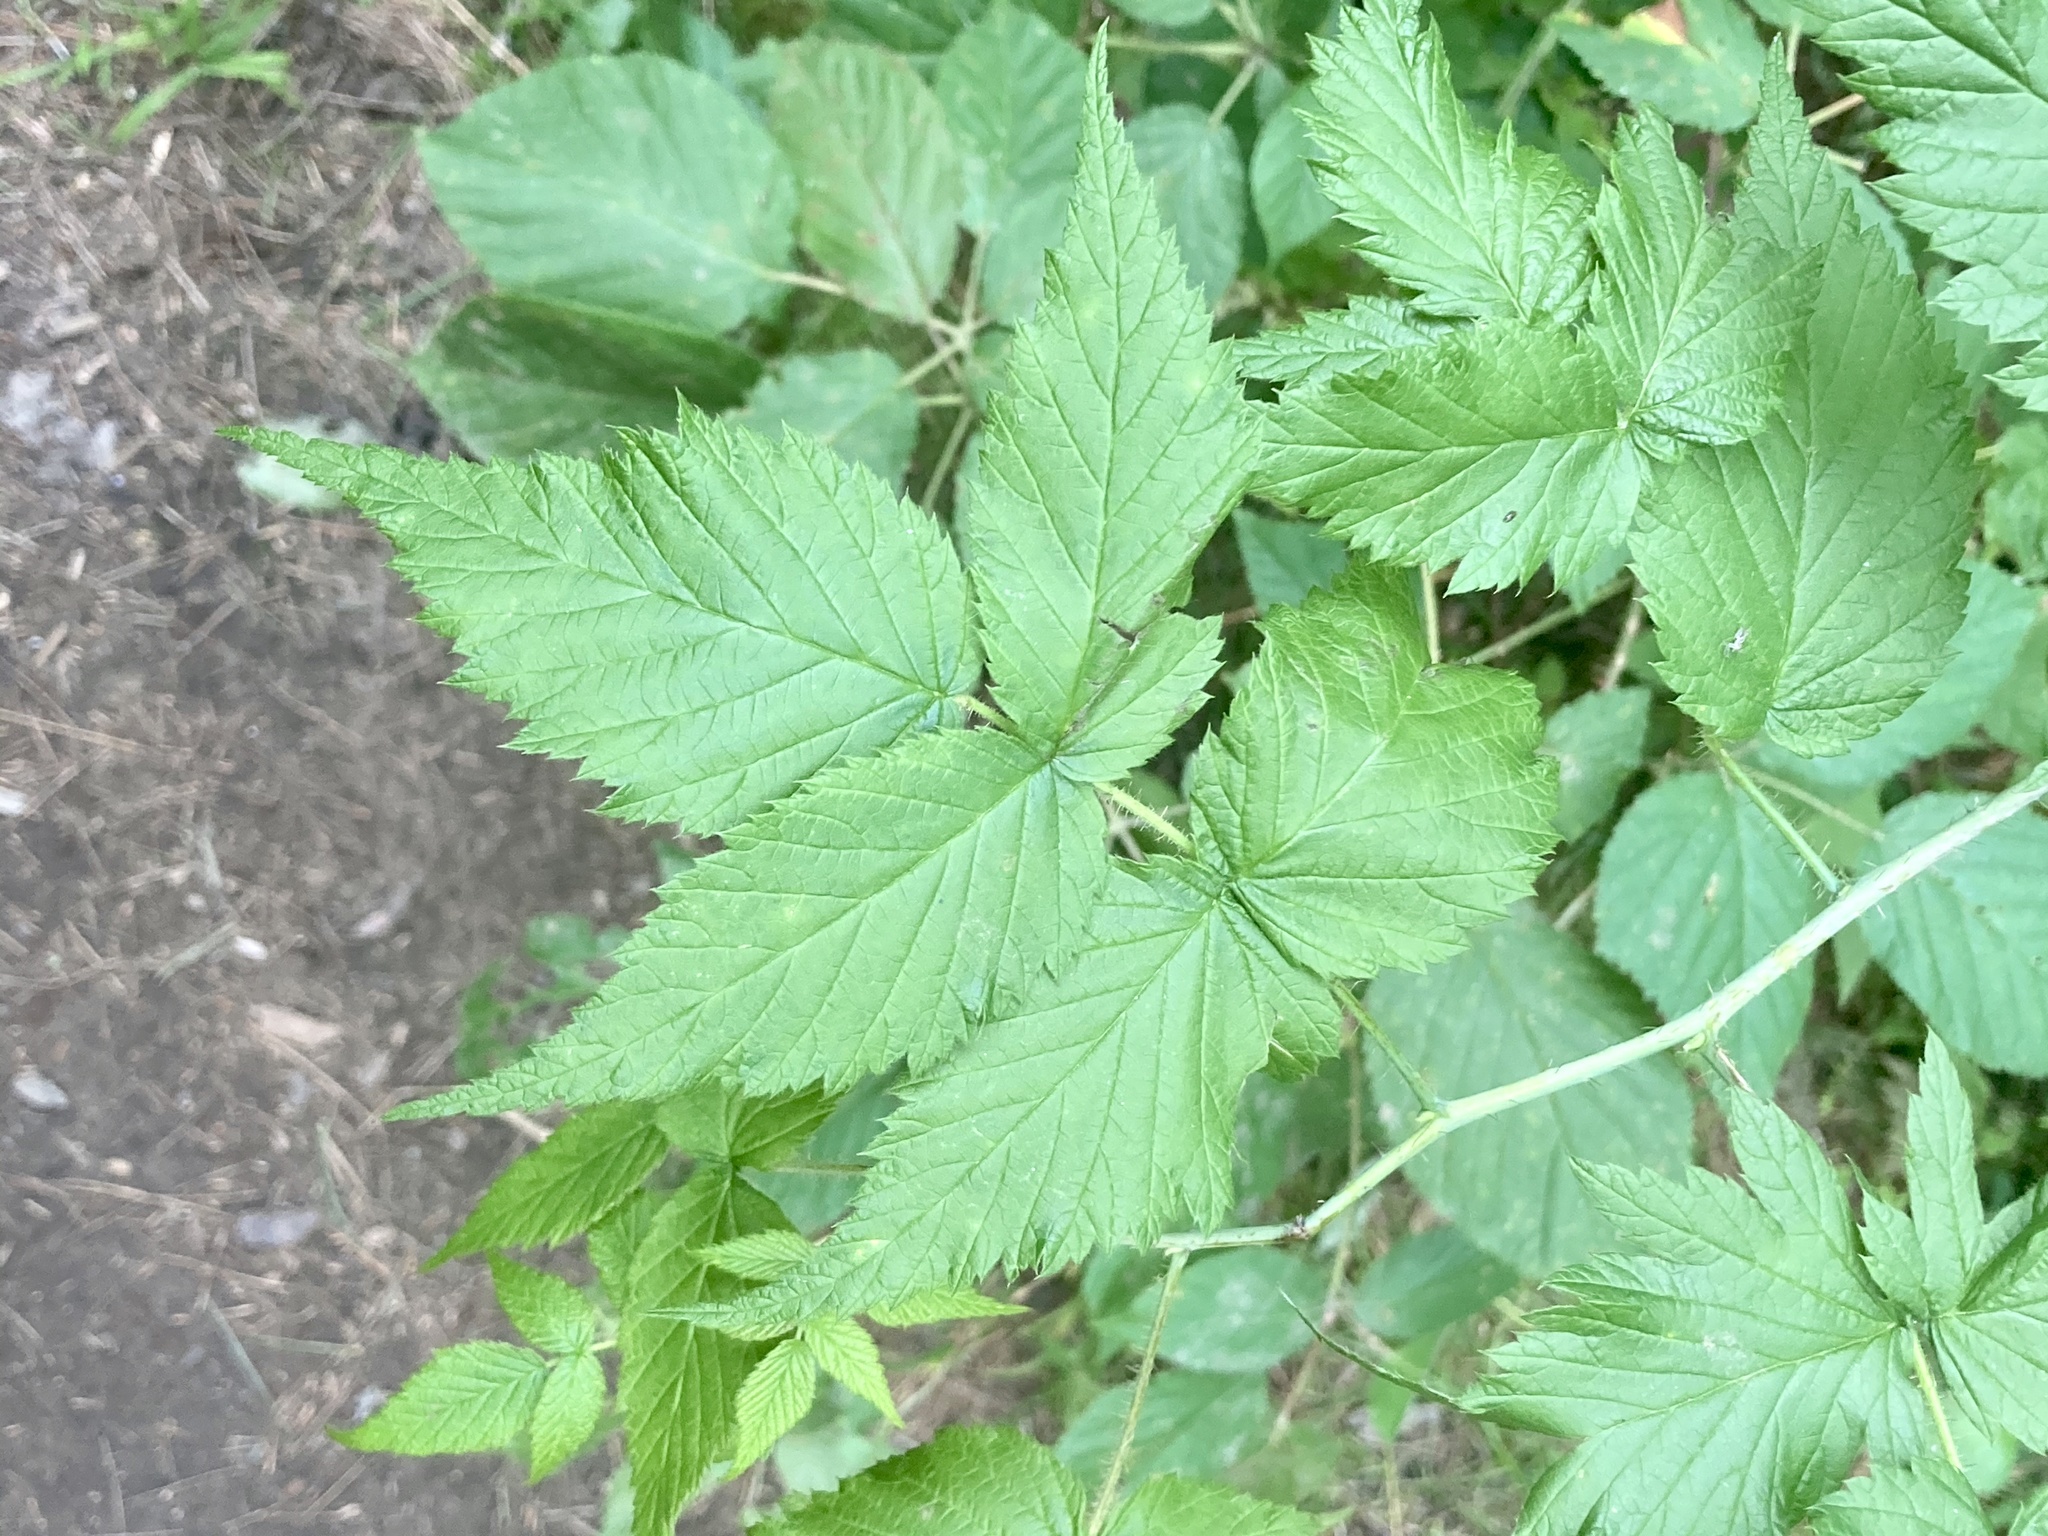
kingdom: Plantae
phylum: Tracheophyta
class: Magnoliopsida
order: Rosales
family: Rosaceae
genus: Rubus
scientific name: Rubus idaeus
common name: Raspberry
